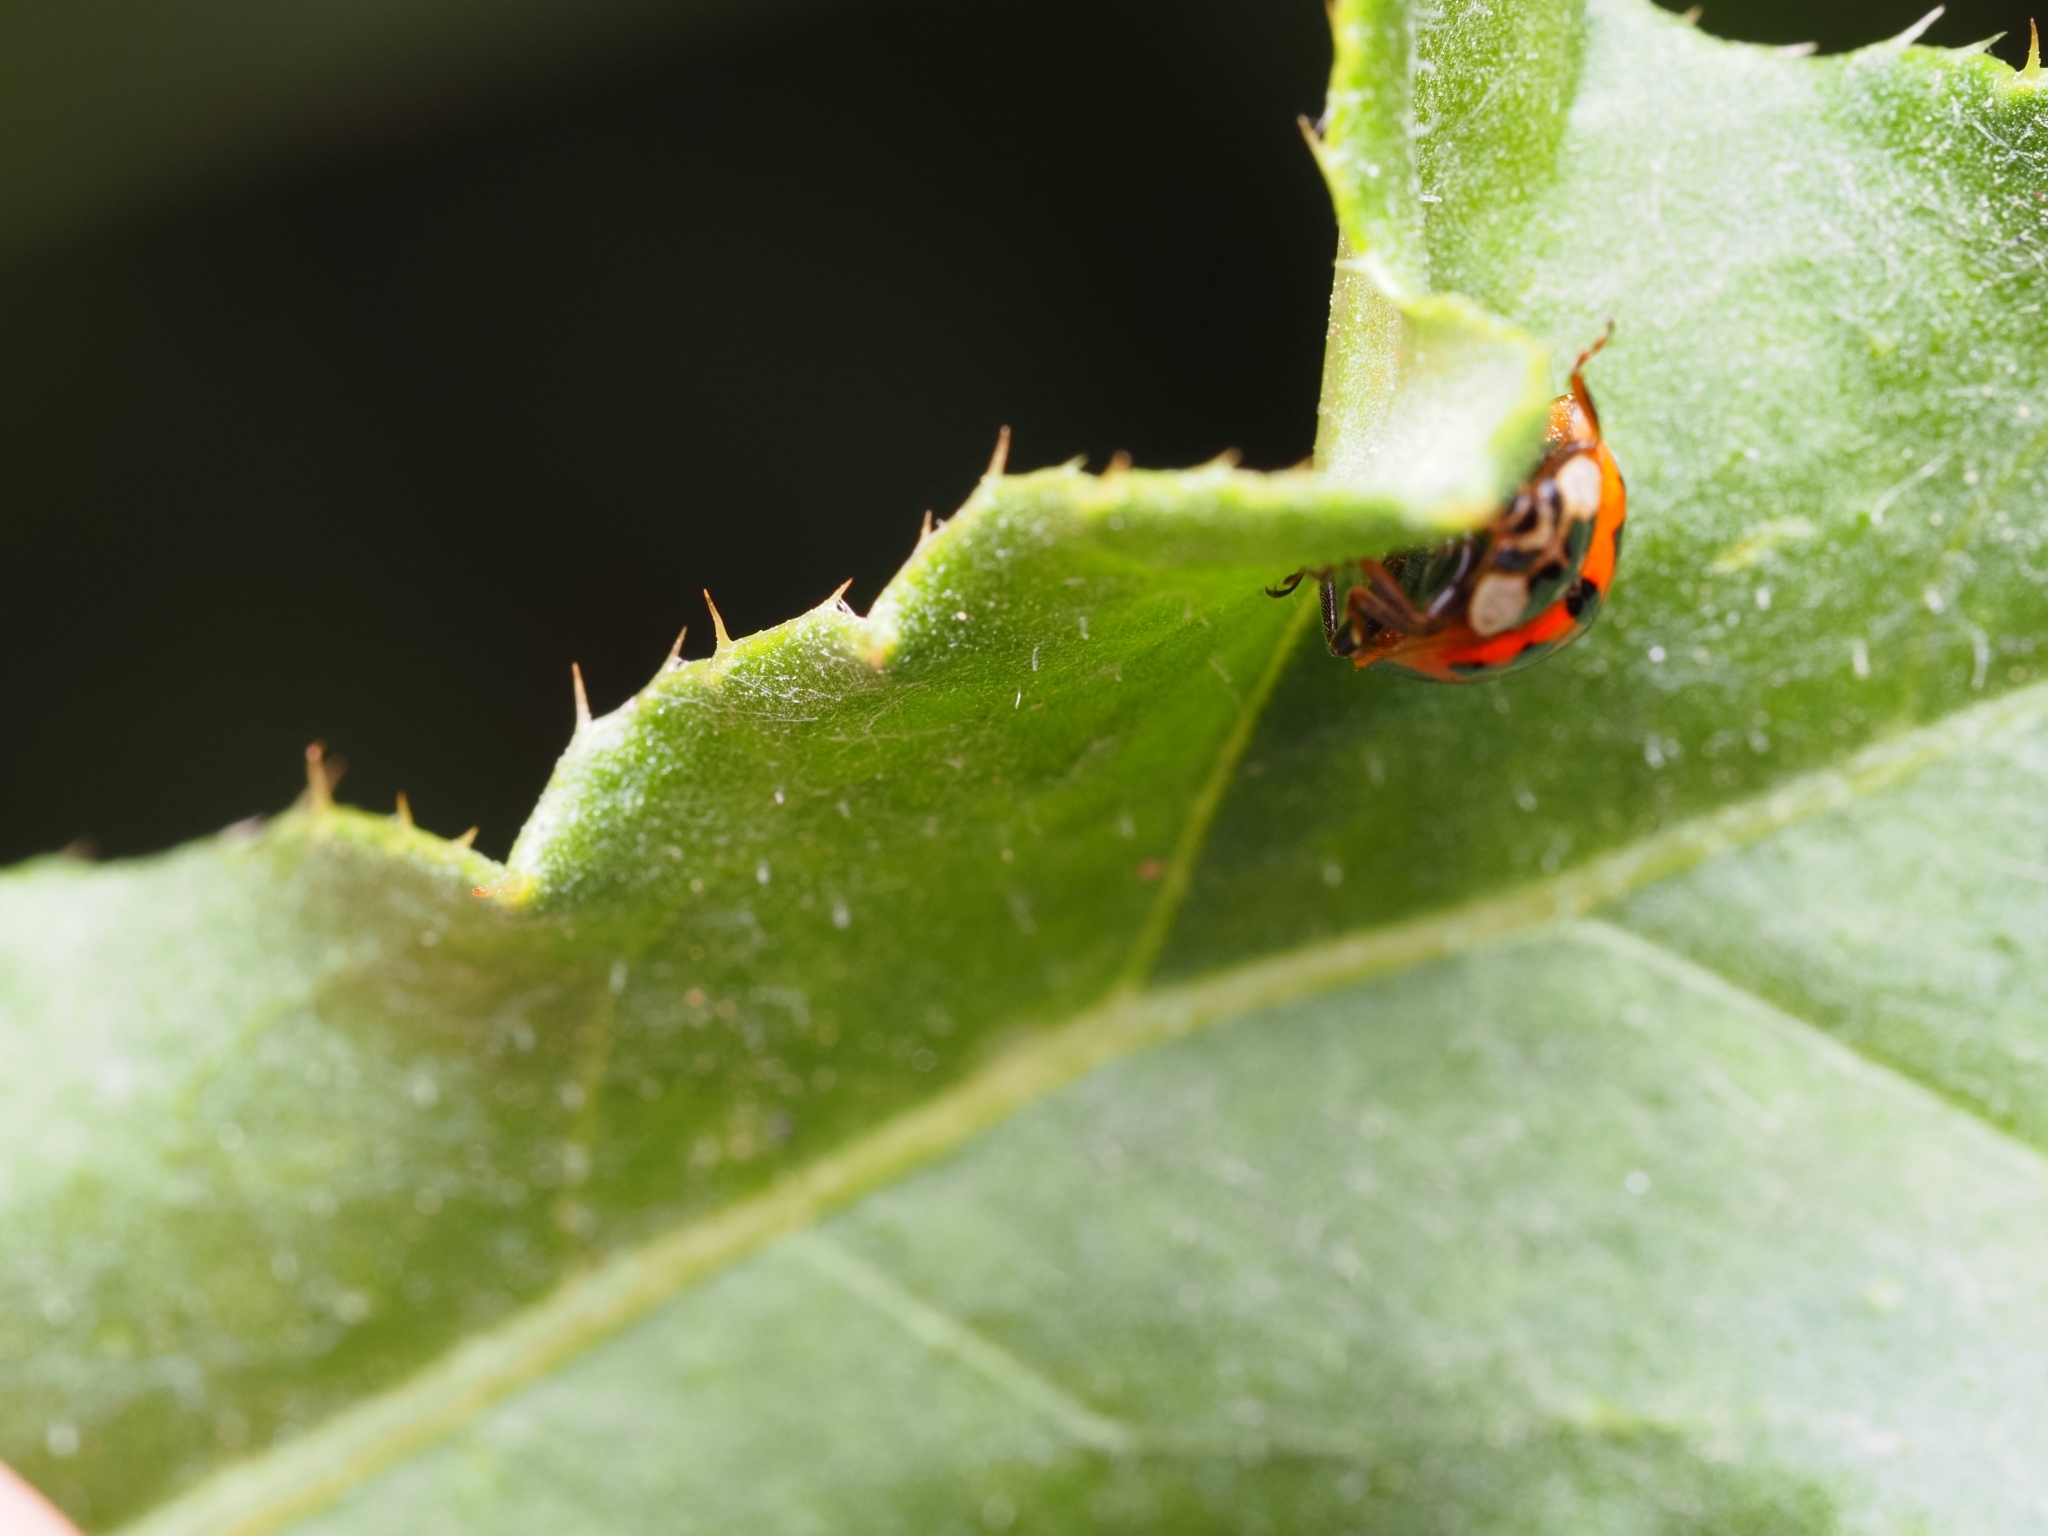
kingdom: Animalia
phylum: Arthropoda
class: Insecta
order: Coleoptera
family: Coccinellidae
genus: Harmonia
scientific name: Harmonia axyridis
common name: Harlequin ladybird
